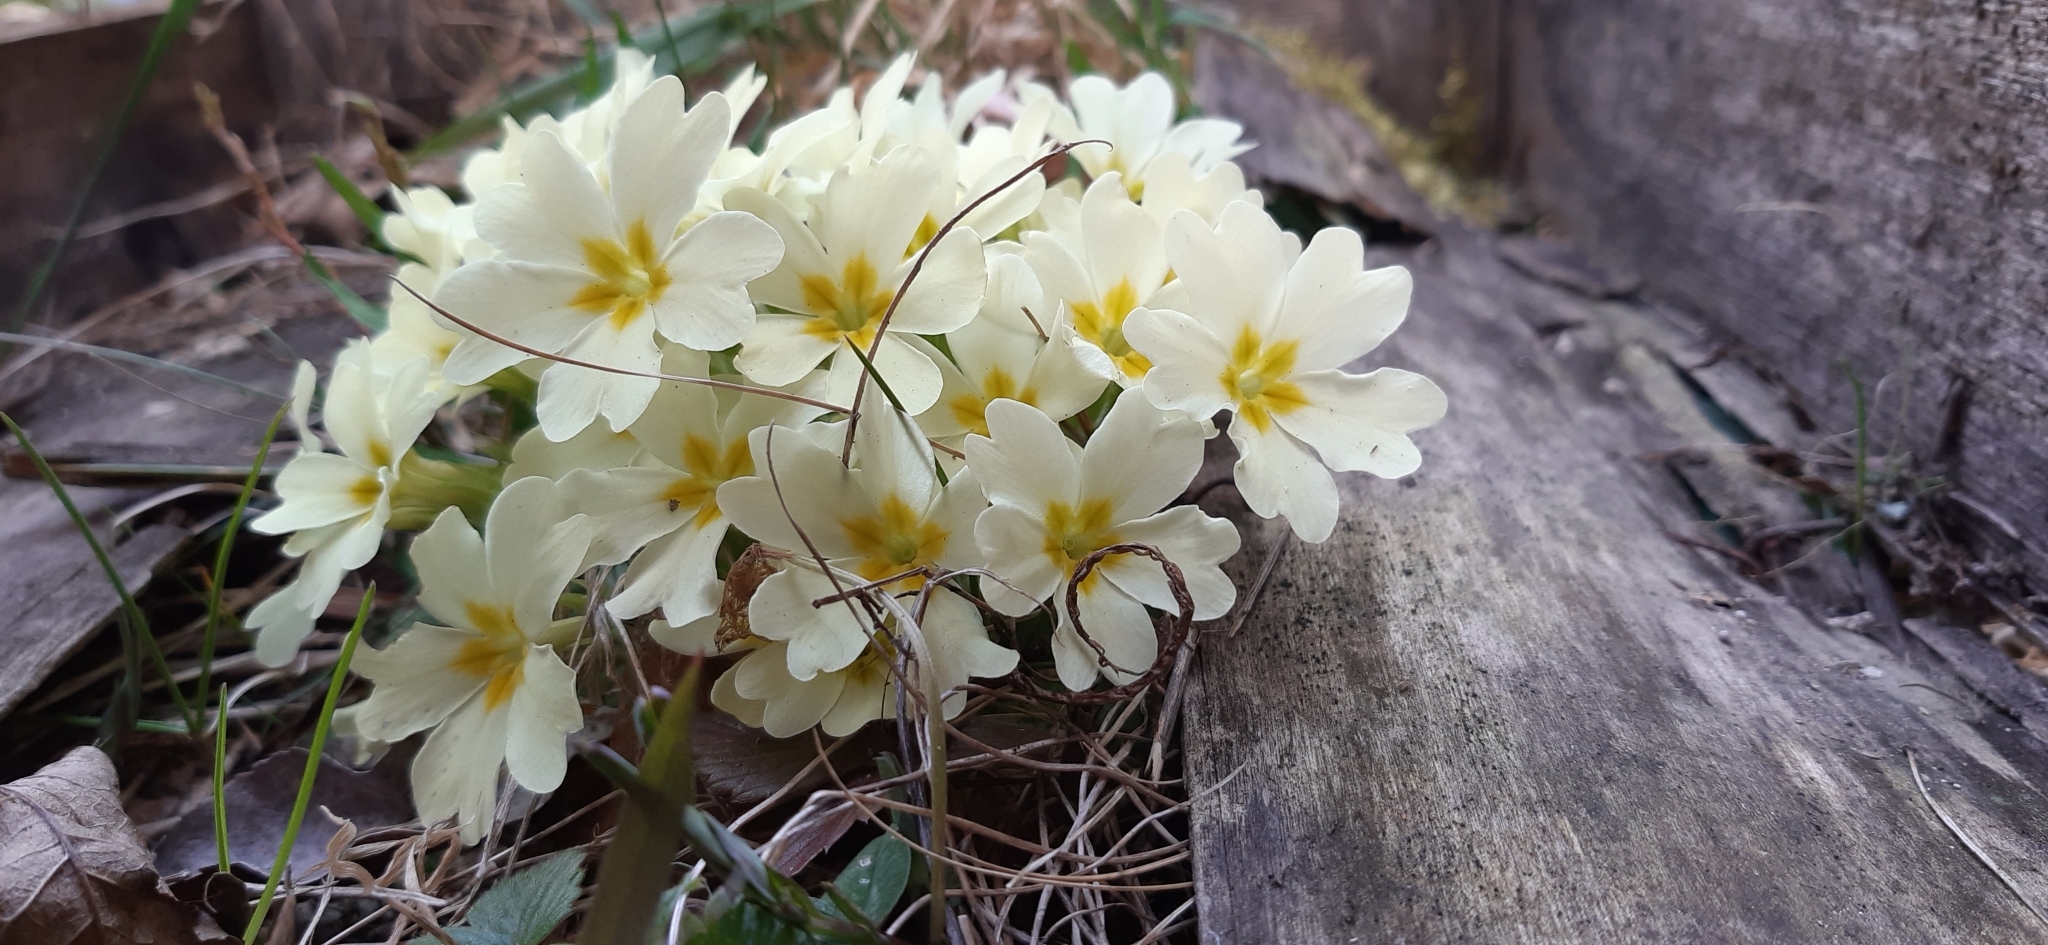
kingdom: Plantae
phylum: Tracheophyta
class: Magnoliopsida
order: Ericales
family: Primulaceae
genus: Primula
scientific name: Primula vulgaris
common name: Primrose
